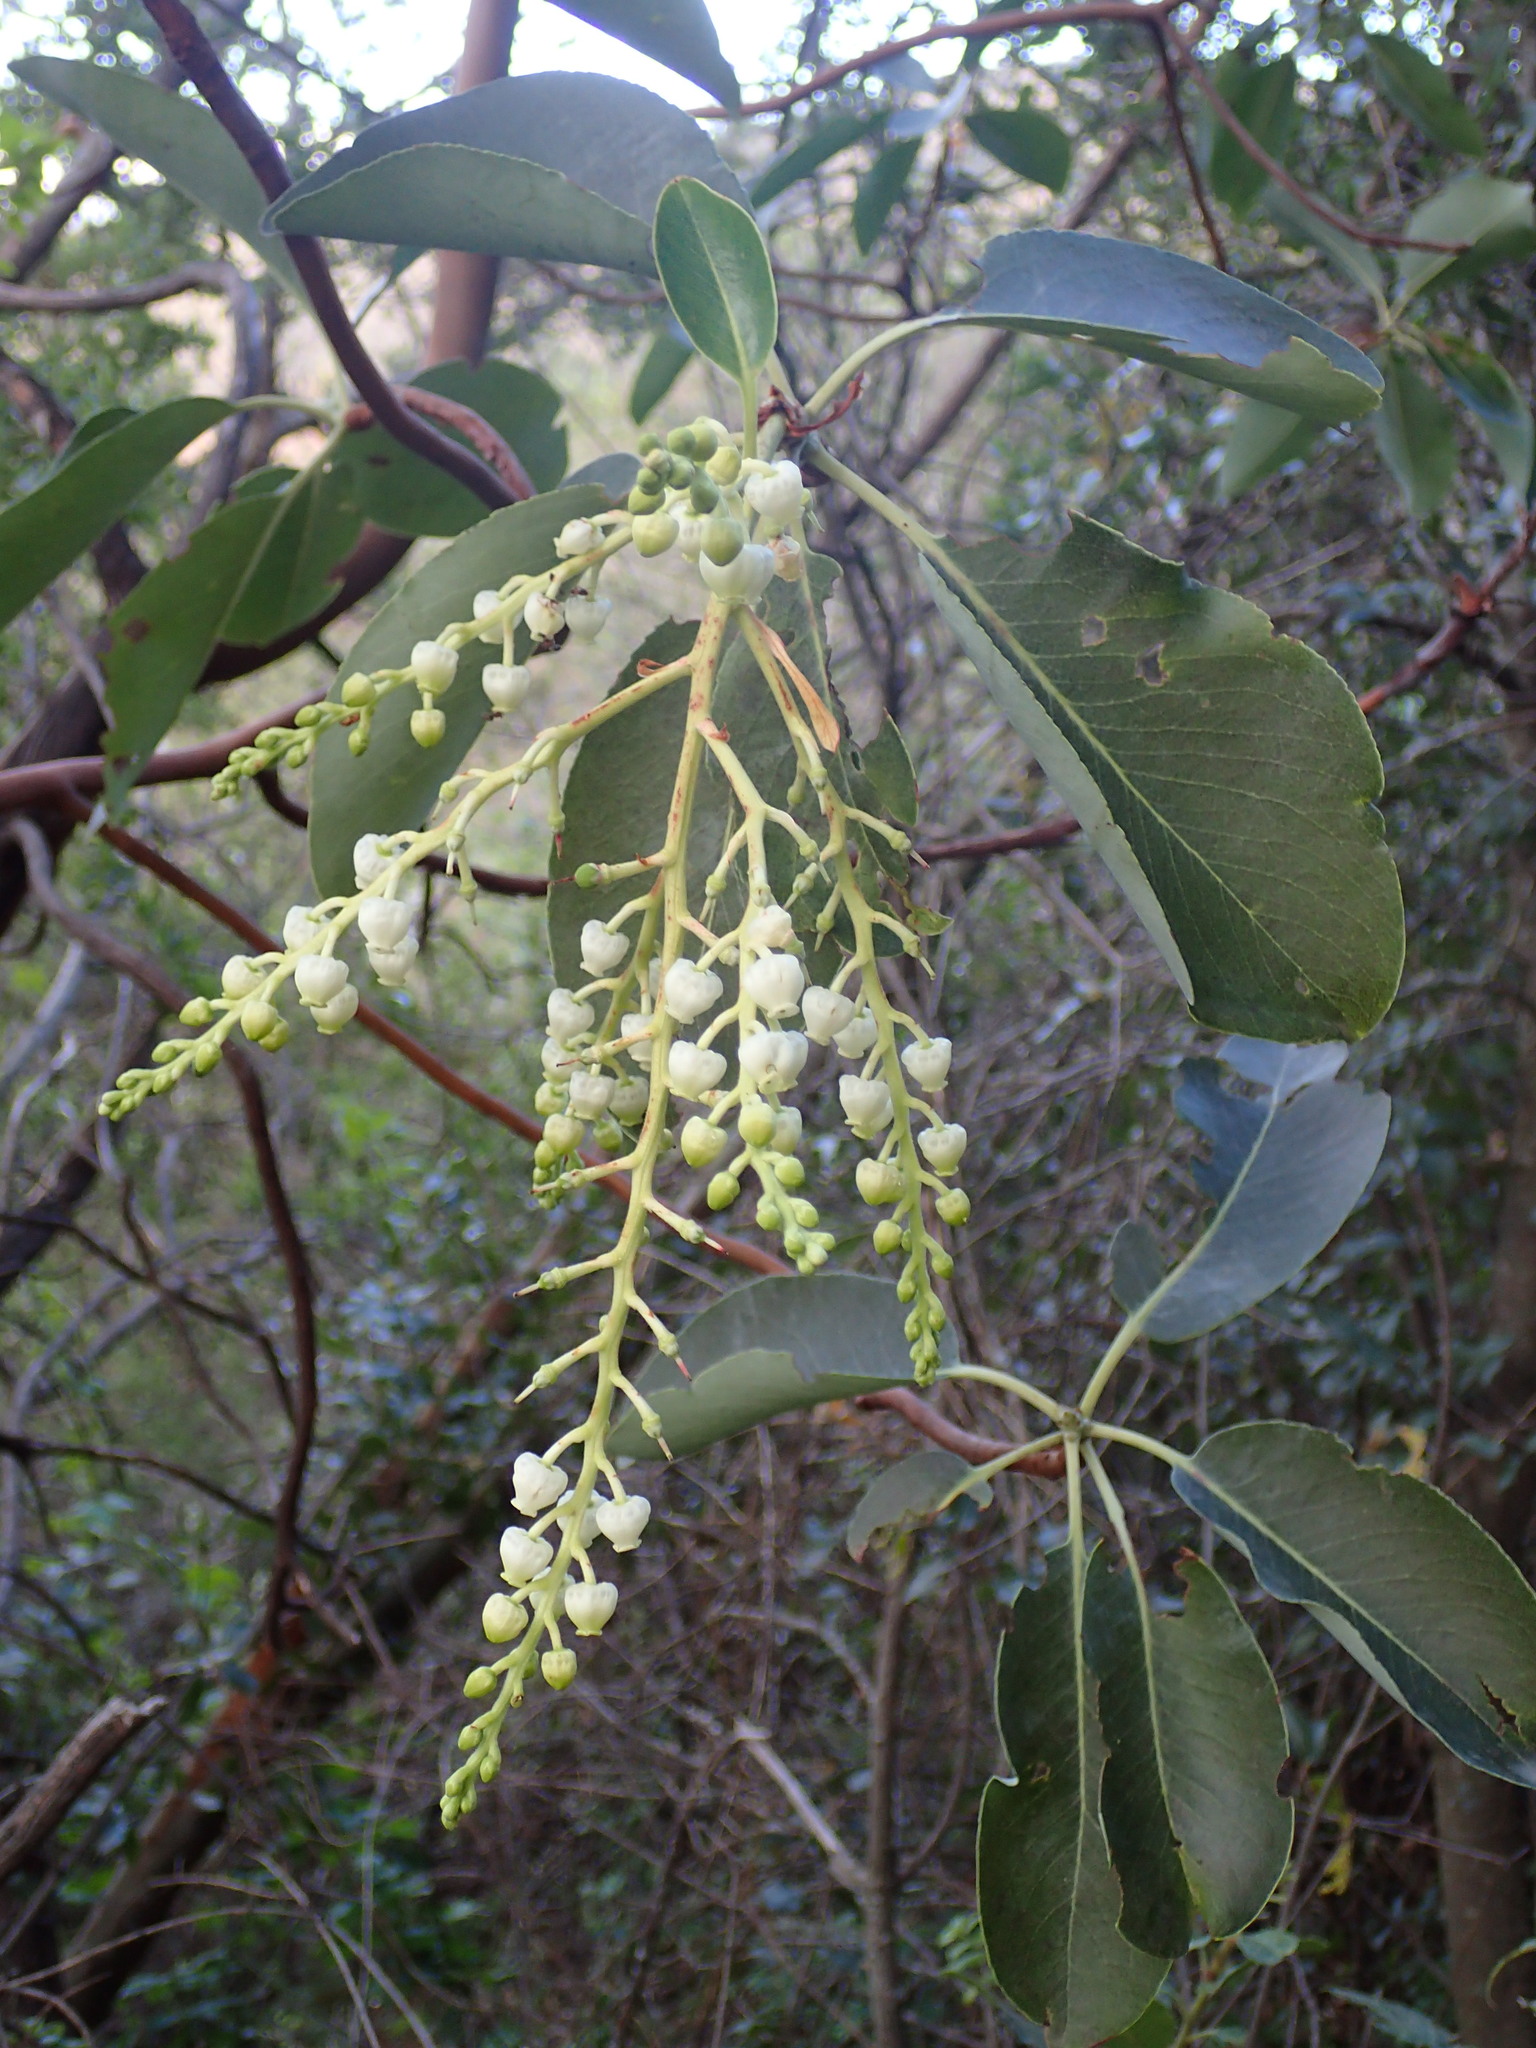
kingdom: Plantae
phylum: Tracheophyta
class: Magnoliopsida
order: Ericales
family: Ericaceae
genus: Arbutus
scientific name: Arbutus menziesii
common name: Pacific madrone
